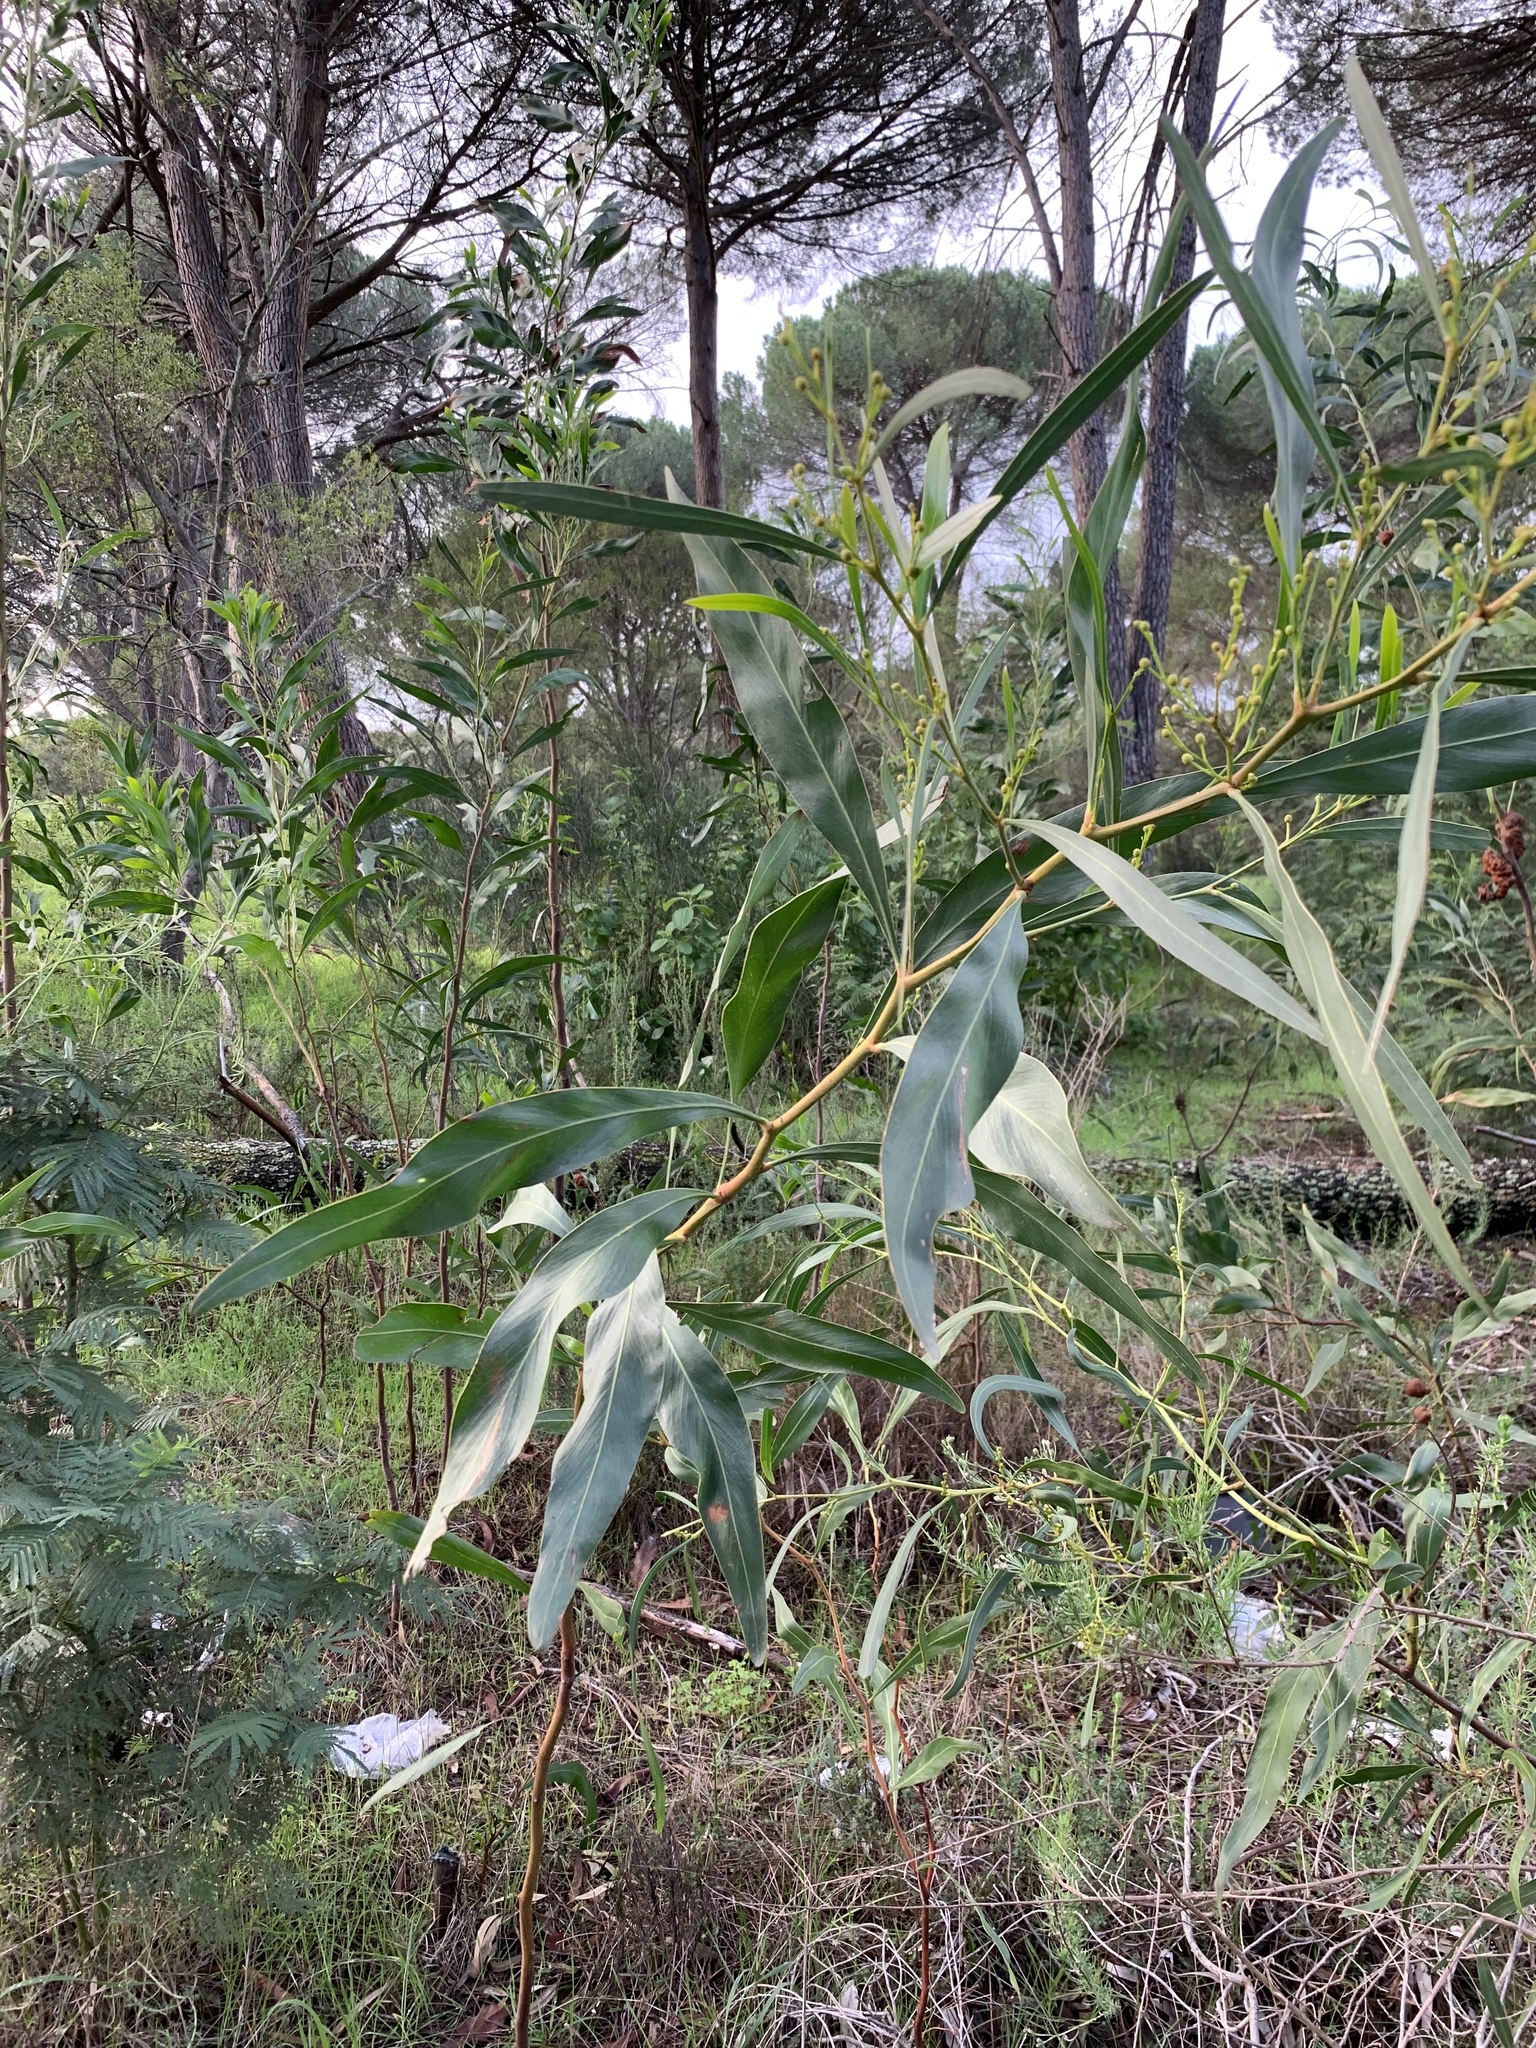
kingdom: Plantae
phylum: Tracheophyta
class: Magnoliopsida
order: Fabales
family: Fabaceae
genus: Acacia
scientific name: Acacia saligna
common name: Orange wattle
